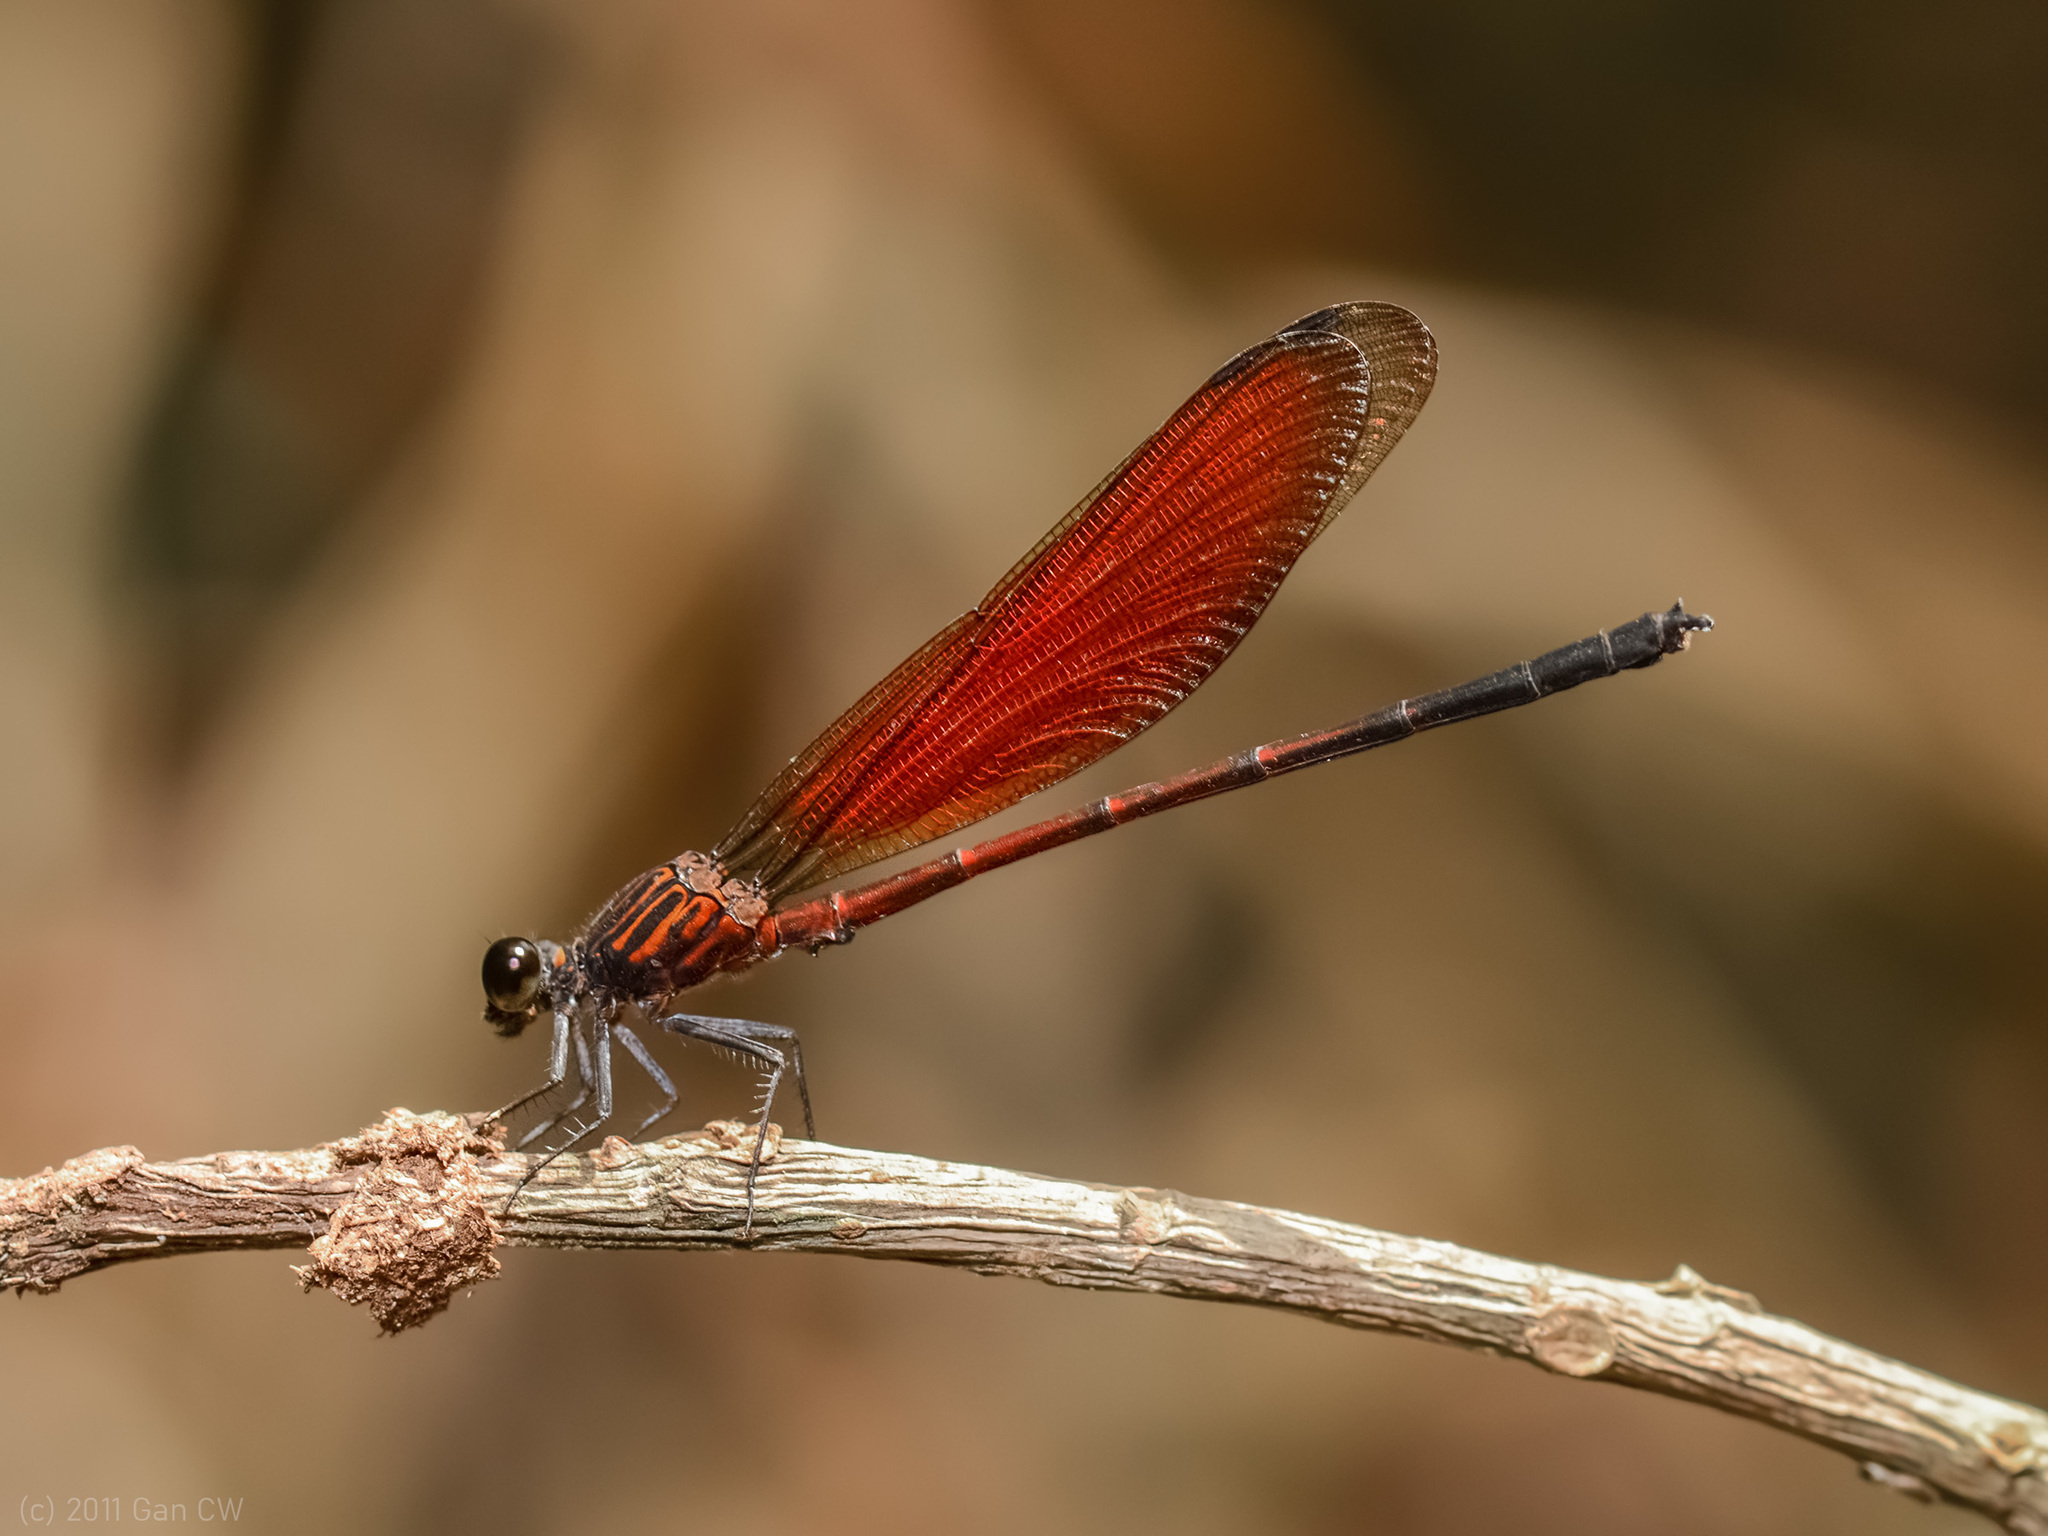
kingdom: Animalia
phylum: Arthropoda
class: Insecta
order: Odonata
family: Euphaeidae
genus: Euphaea
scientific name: Euphaea ochracea
